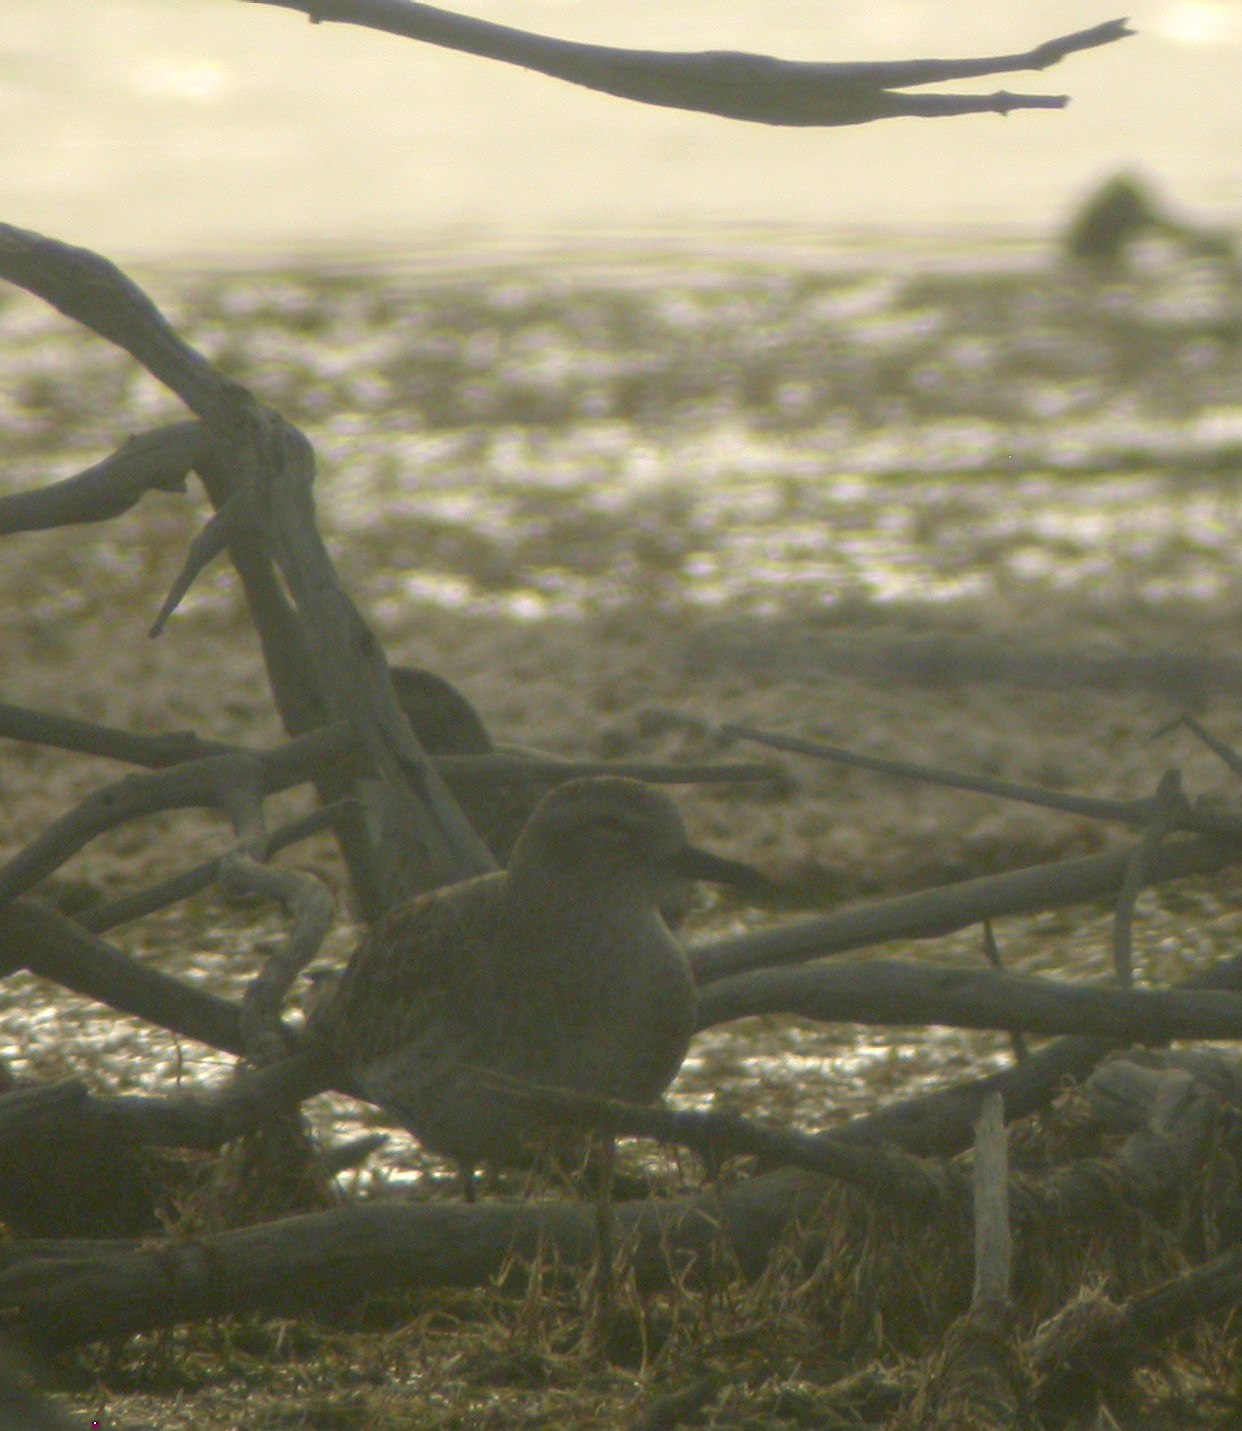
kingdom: Animalia
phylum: Chordata
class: Aves
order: Charadriiformes
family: Charadriidae
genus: Pluvialis
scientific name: Pluvialis squatarola
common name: Grey plover
